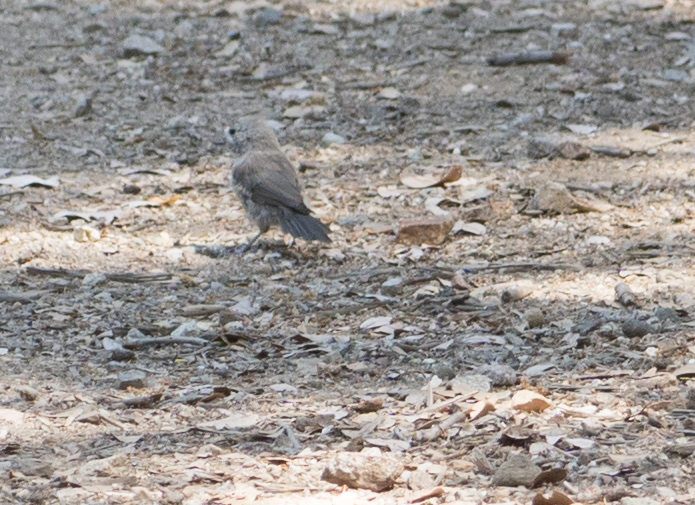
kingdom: Animalia
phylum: Chordata
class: Aves
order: Passeriformes
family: Paridae
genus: Baeolophus
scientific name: Baeolophus inornatus
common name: Oak titmouse
